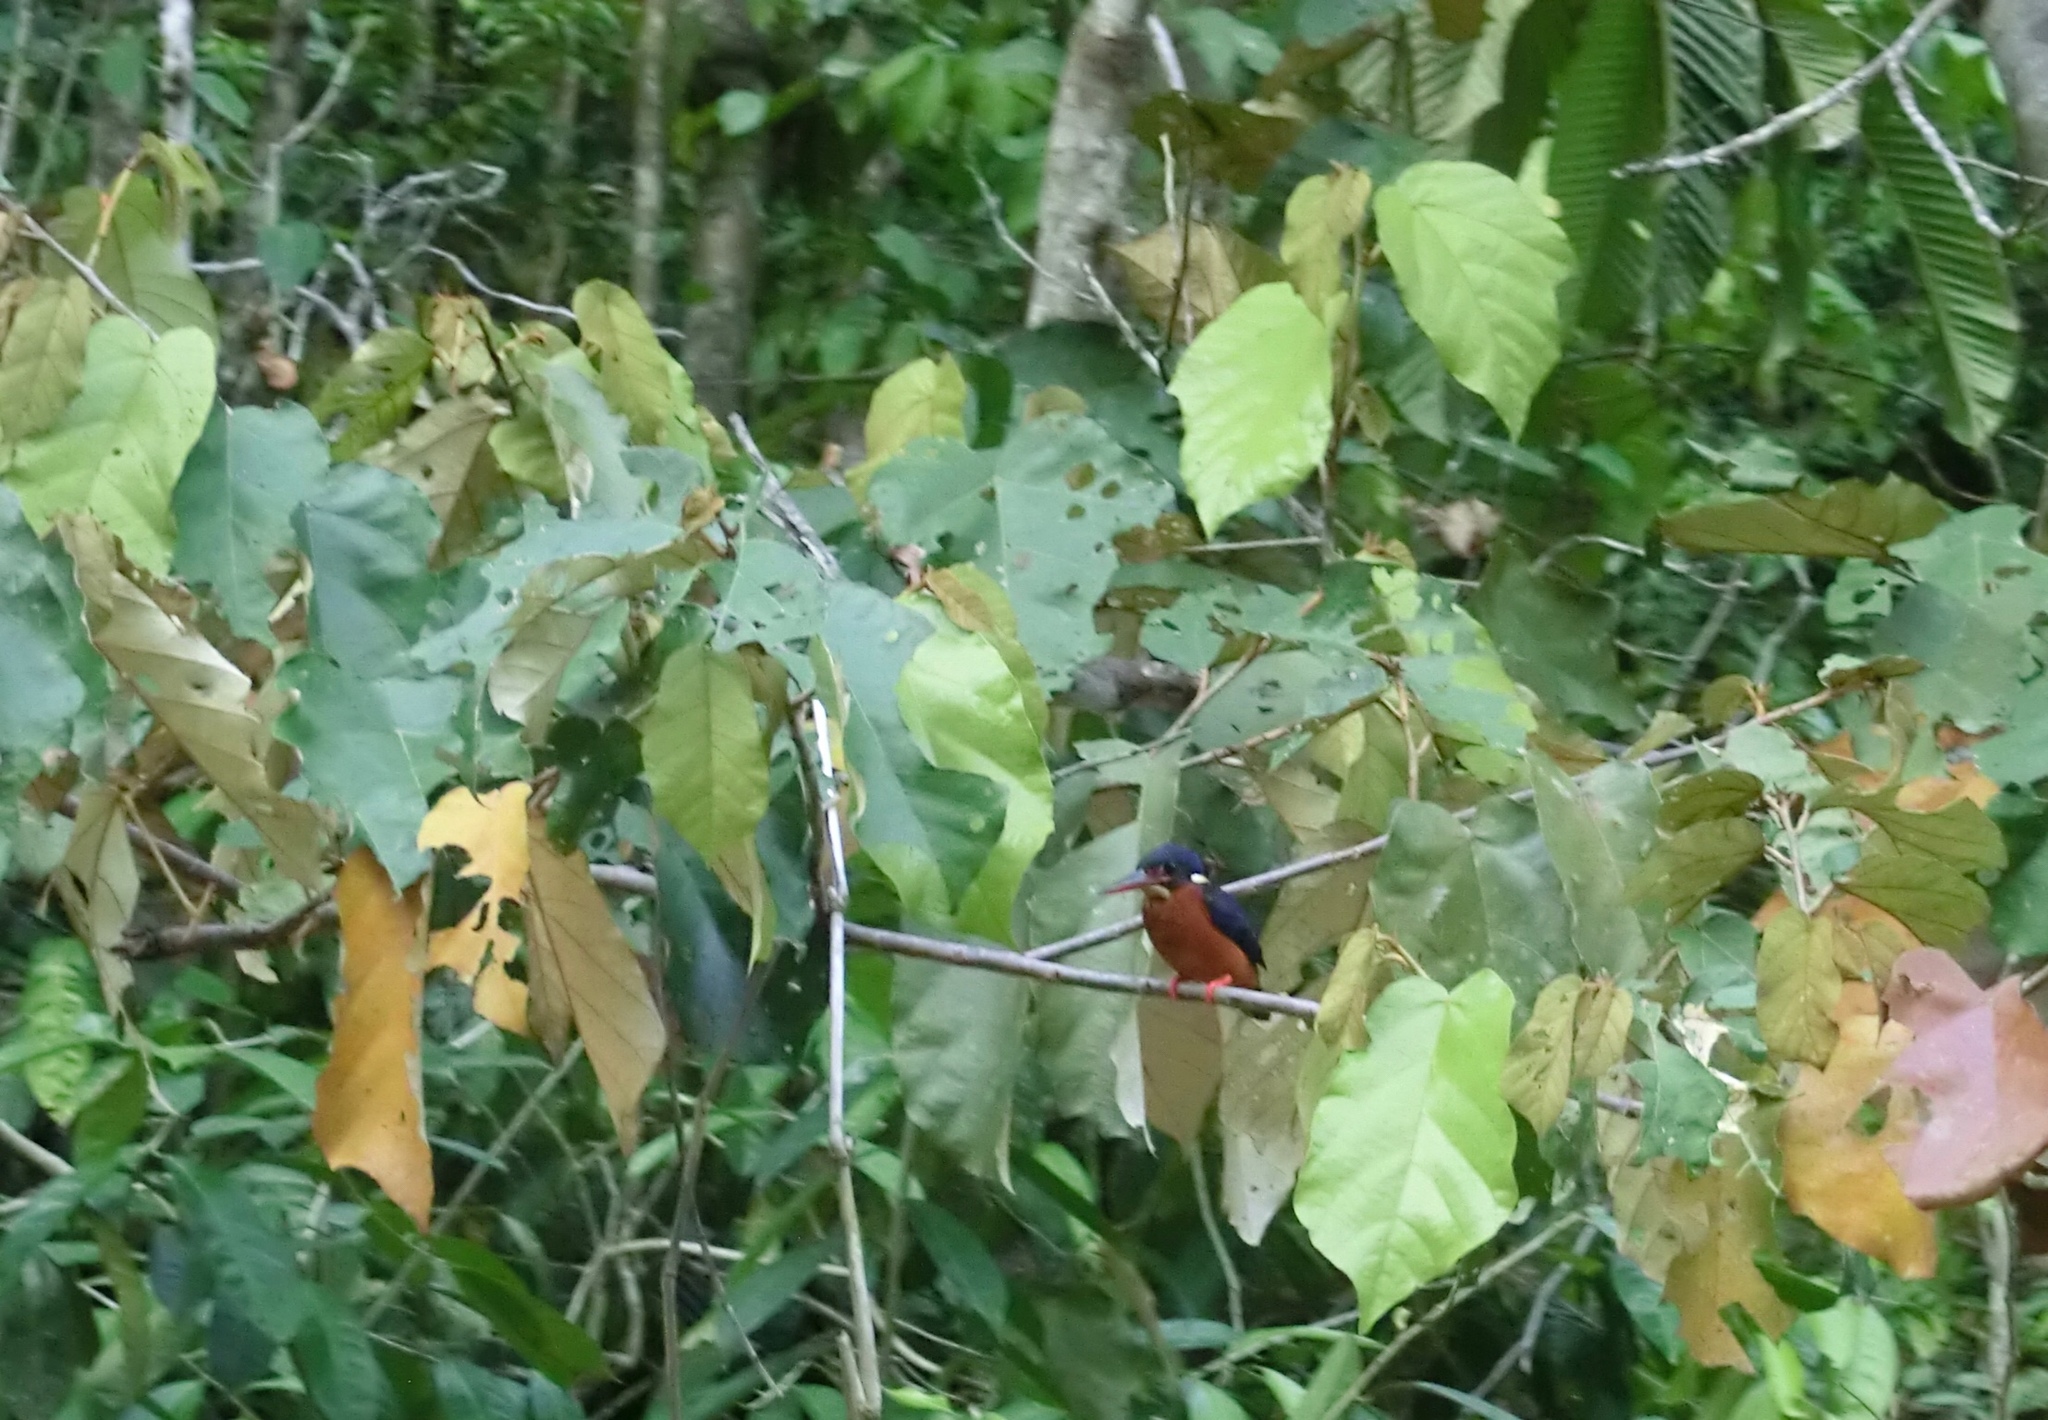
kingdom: Animalia
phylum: Chordata
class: Aves
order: Coraciiformes
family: Alcedinidae
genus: Alcedo
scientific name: Alcedo meninting
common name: Blue-eared kingfisher
